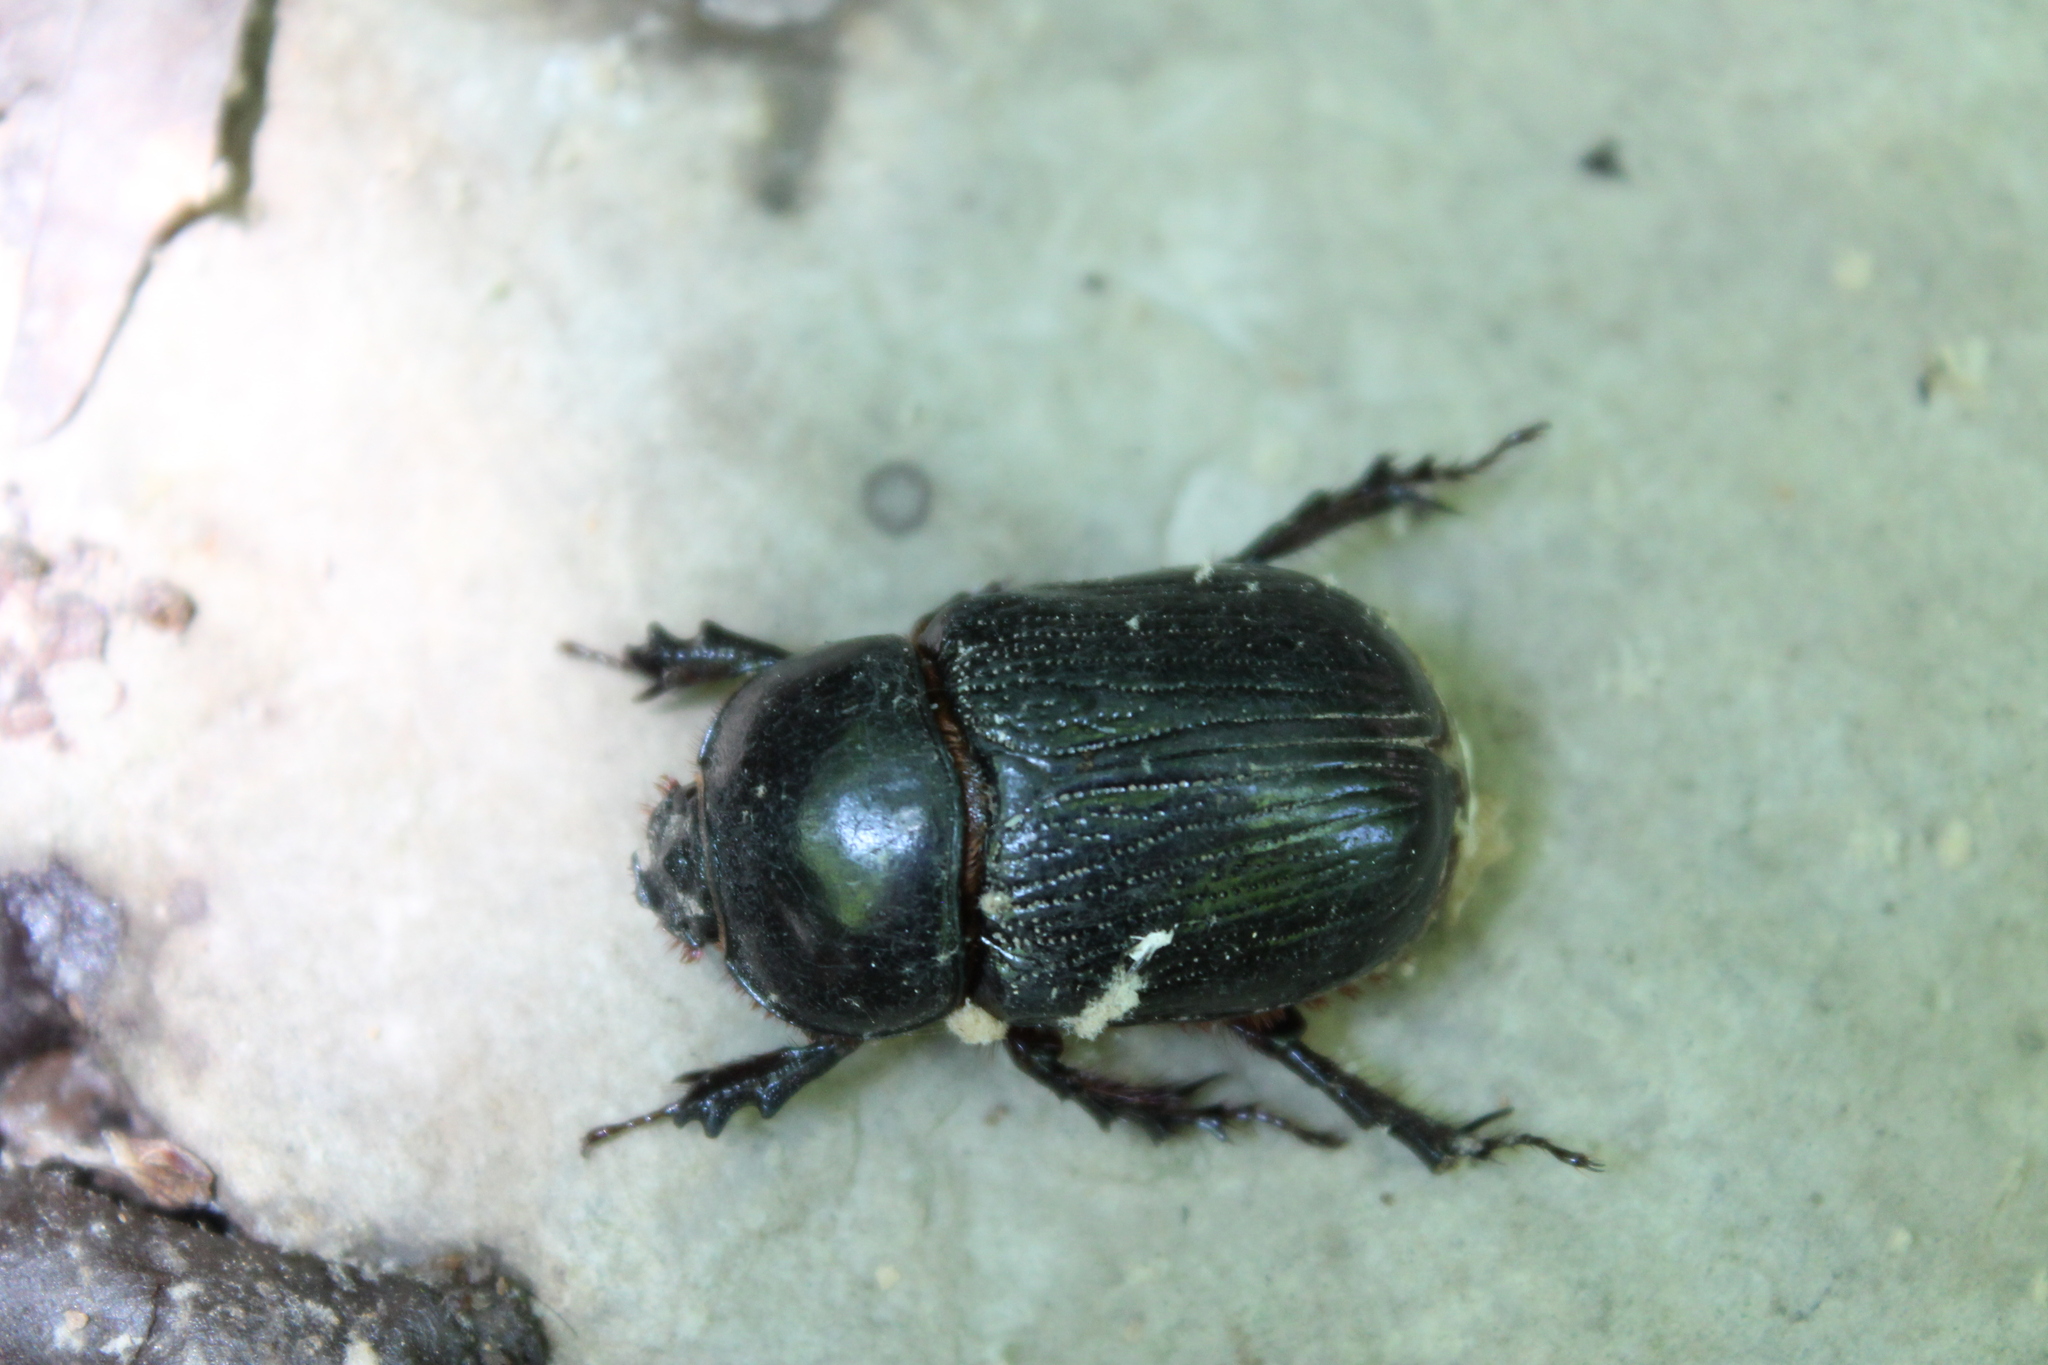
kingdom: Animalia
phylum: Arthropoda
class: Insecta
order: Coleoptera
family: Scarabaeidae
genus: Xyloryctes
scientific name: Xyloryctes jamaicensis
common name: Eastern rhinoceros beetle
